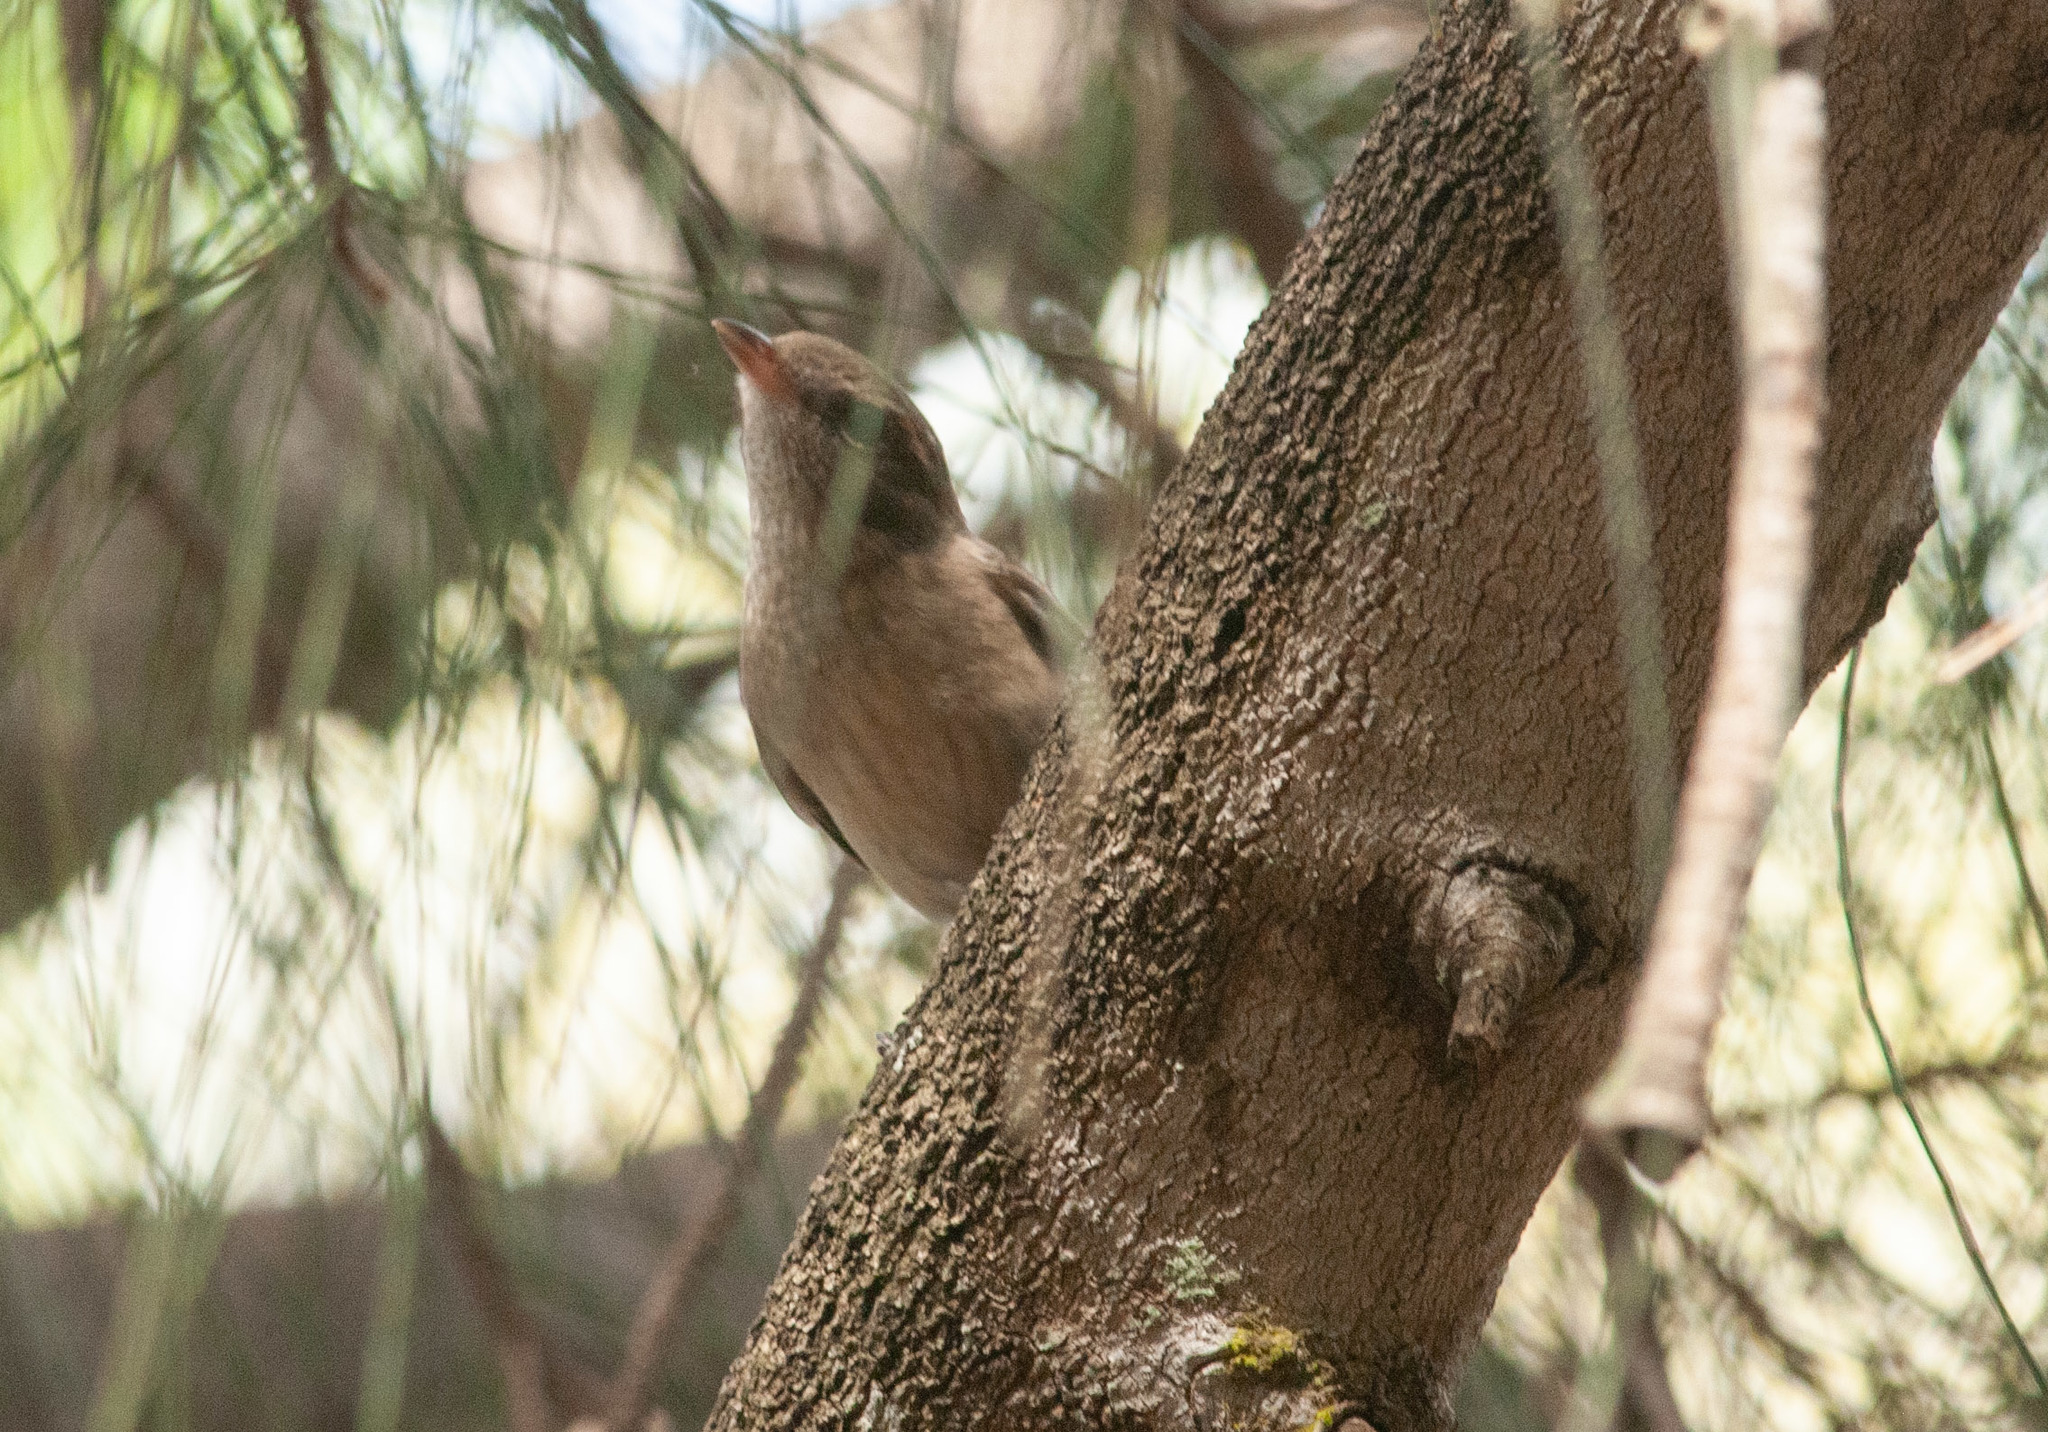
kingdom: Animalia
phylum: Chordata
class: Aves
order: Passeriformes
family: Pachycephalidae
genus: Pachycephala
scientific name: Pachycephala pectoralis
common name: Australian golden whistler
